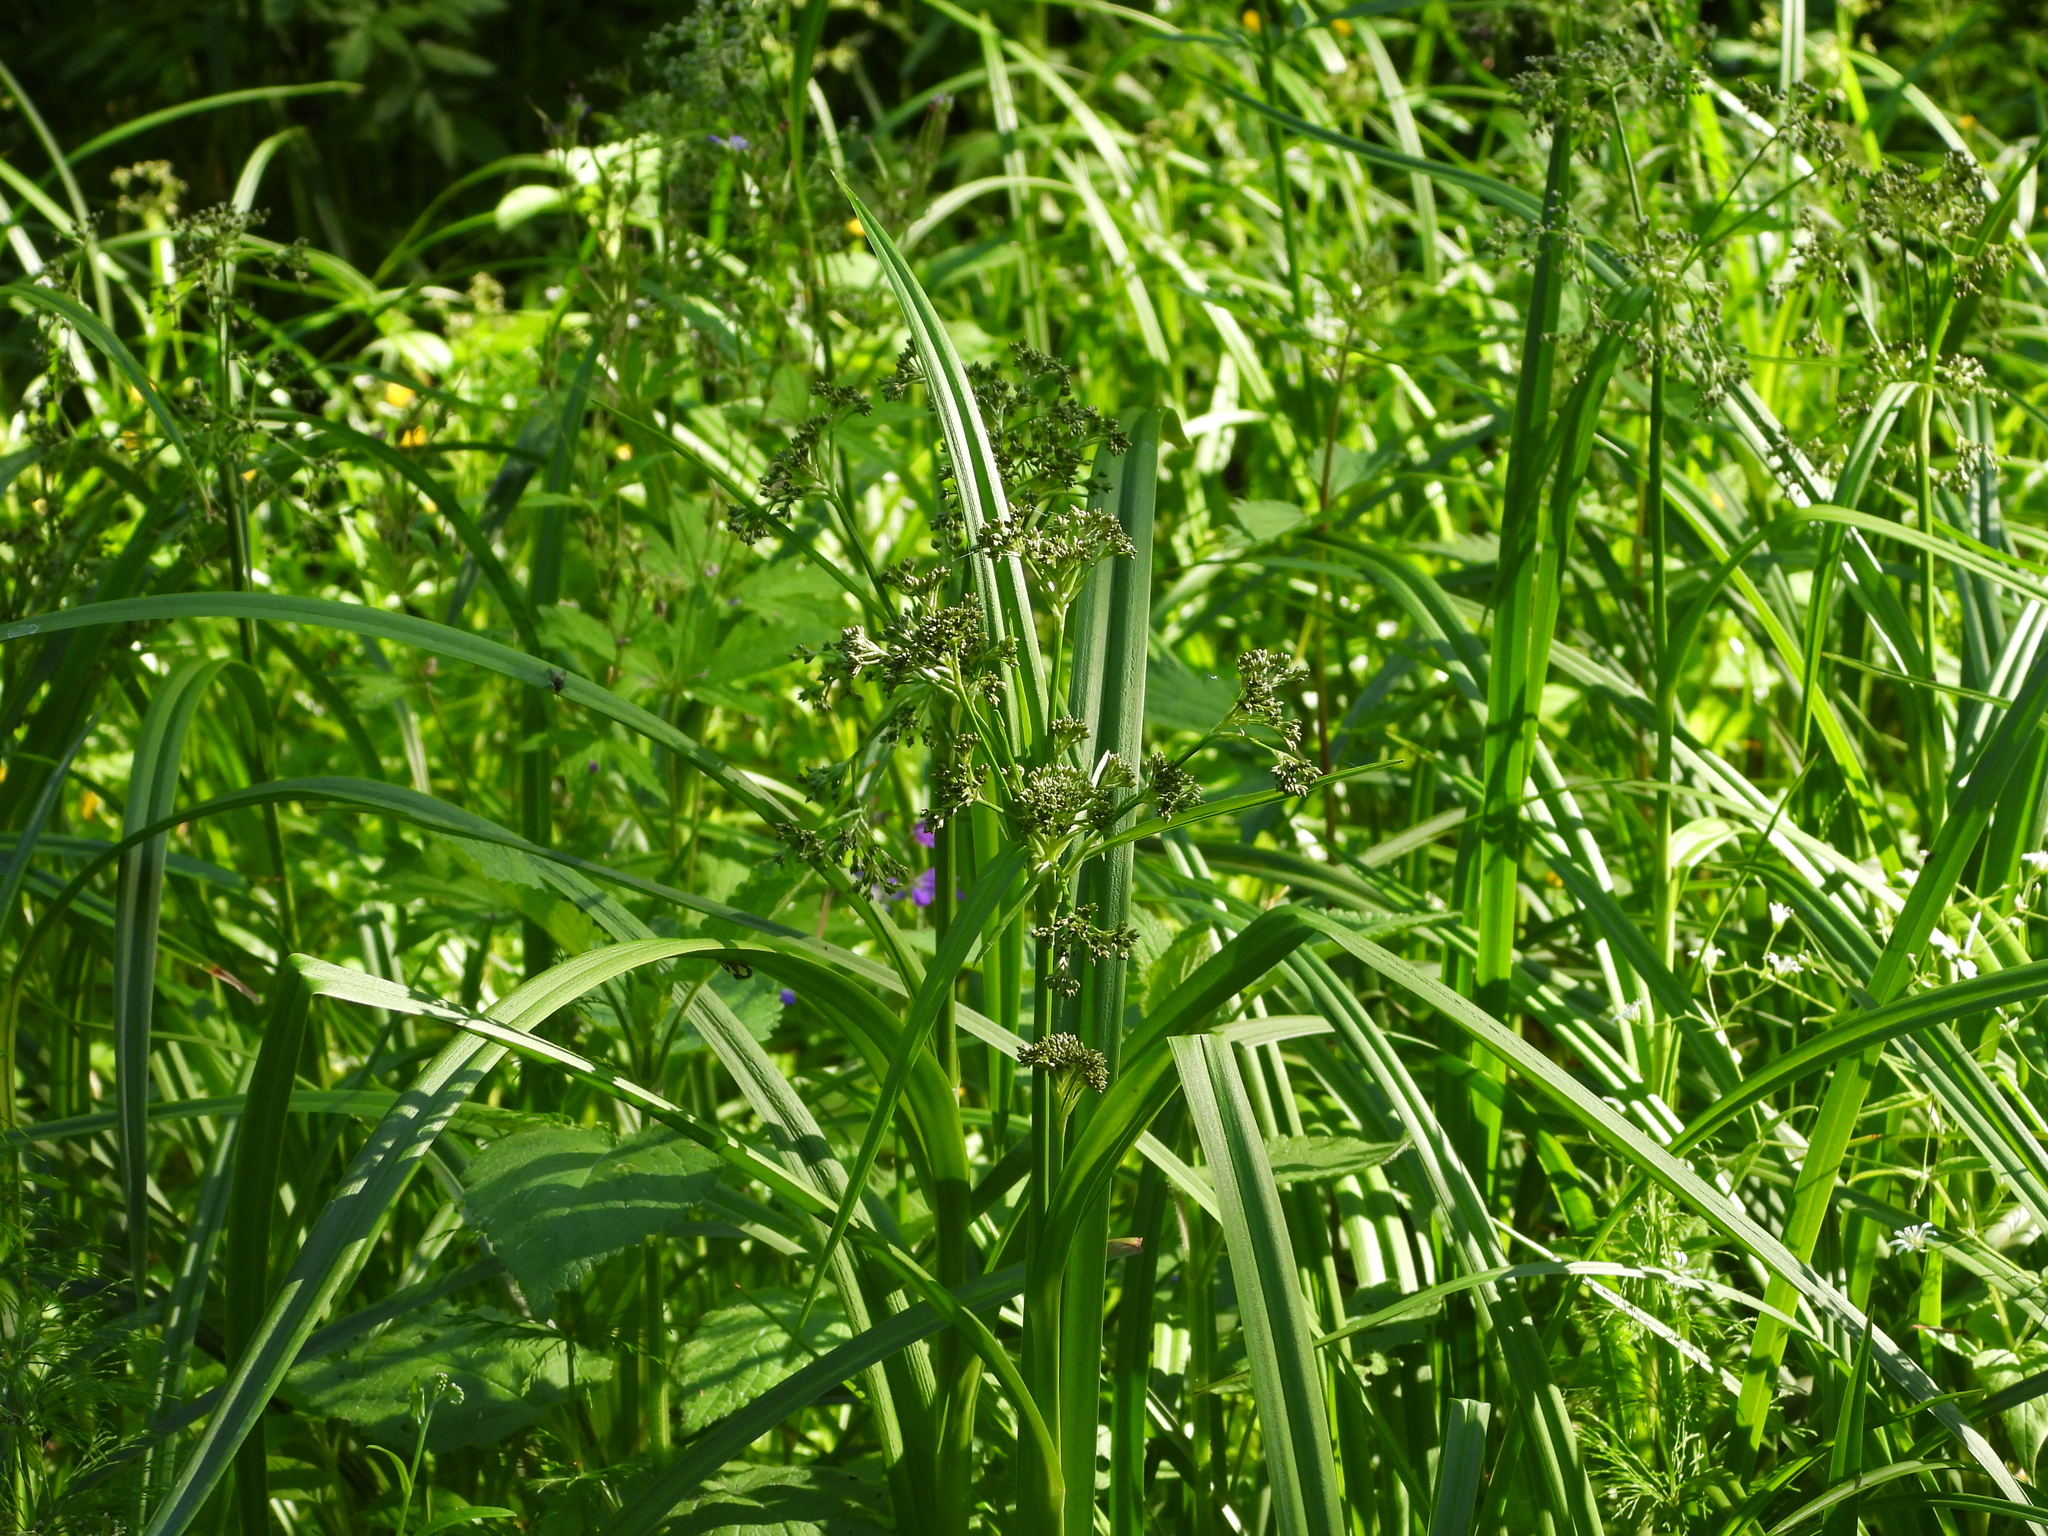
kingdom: Plantae
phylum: Tracheophyta
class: Liliopsida
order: Poales
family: Cyperaceae
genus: Scirpus
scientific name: Scirpus sylvaticus
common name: Wood club-rush
